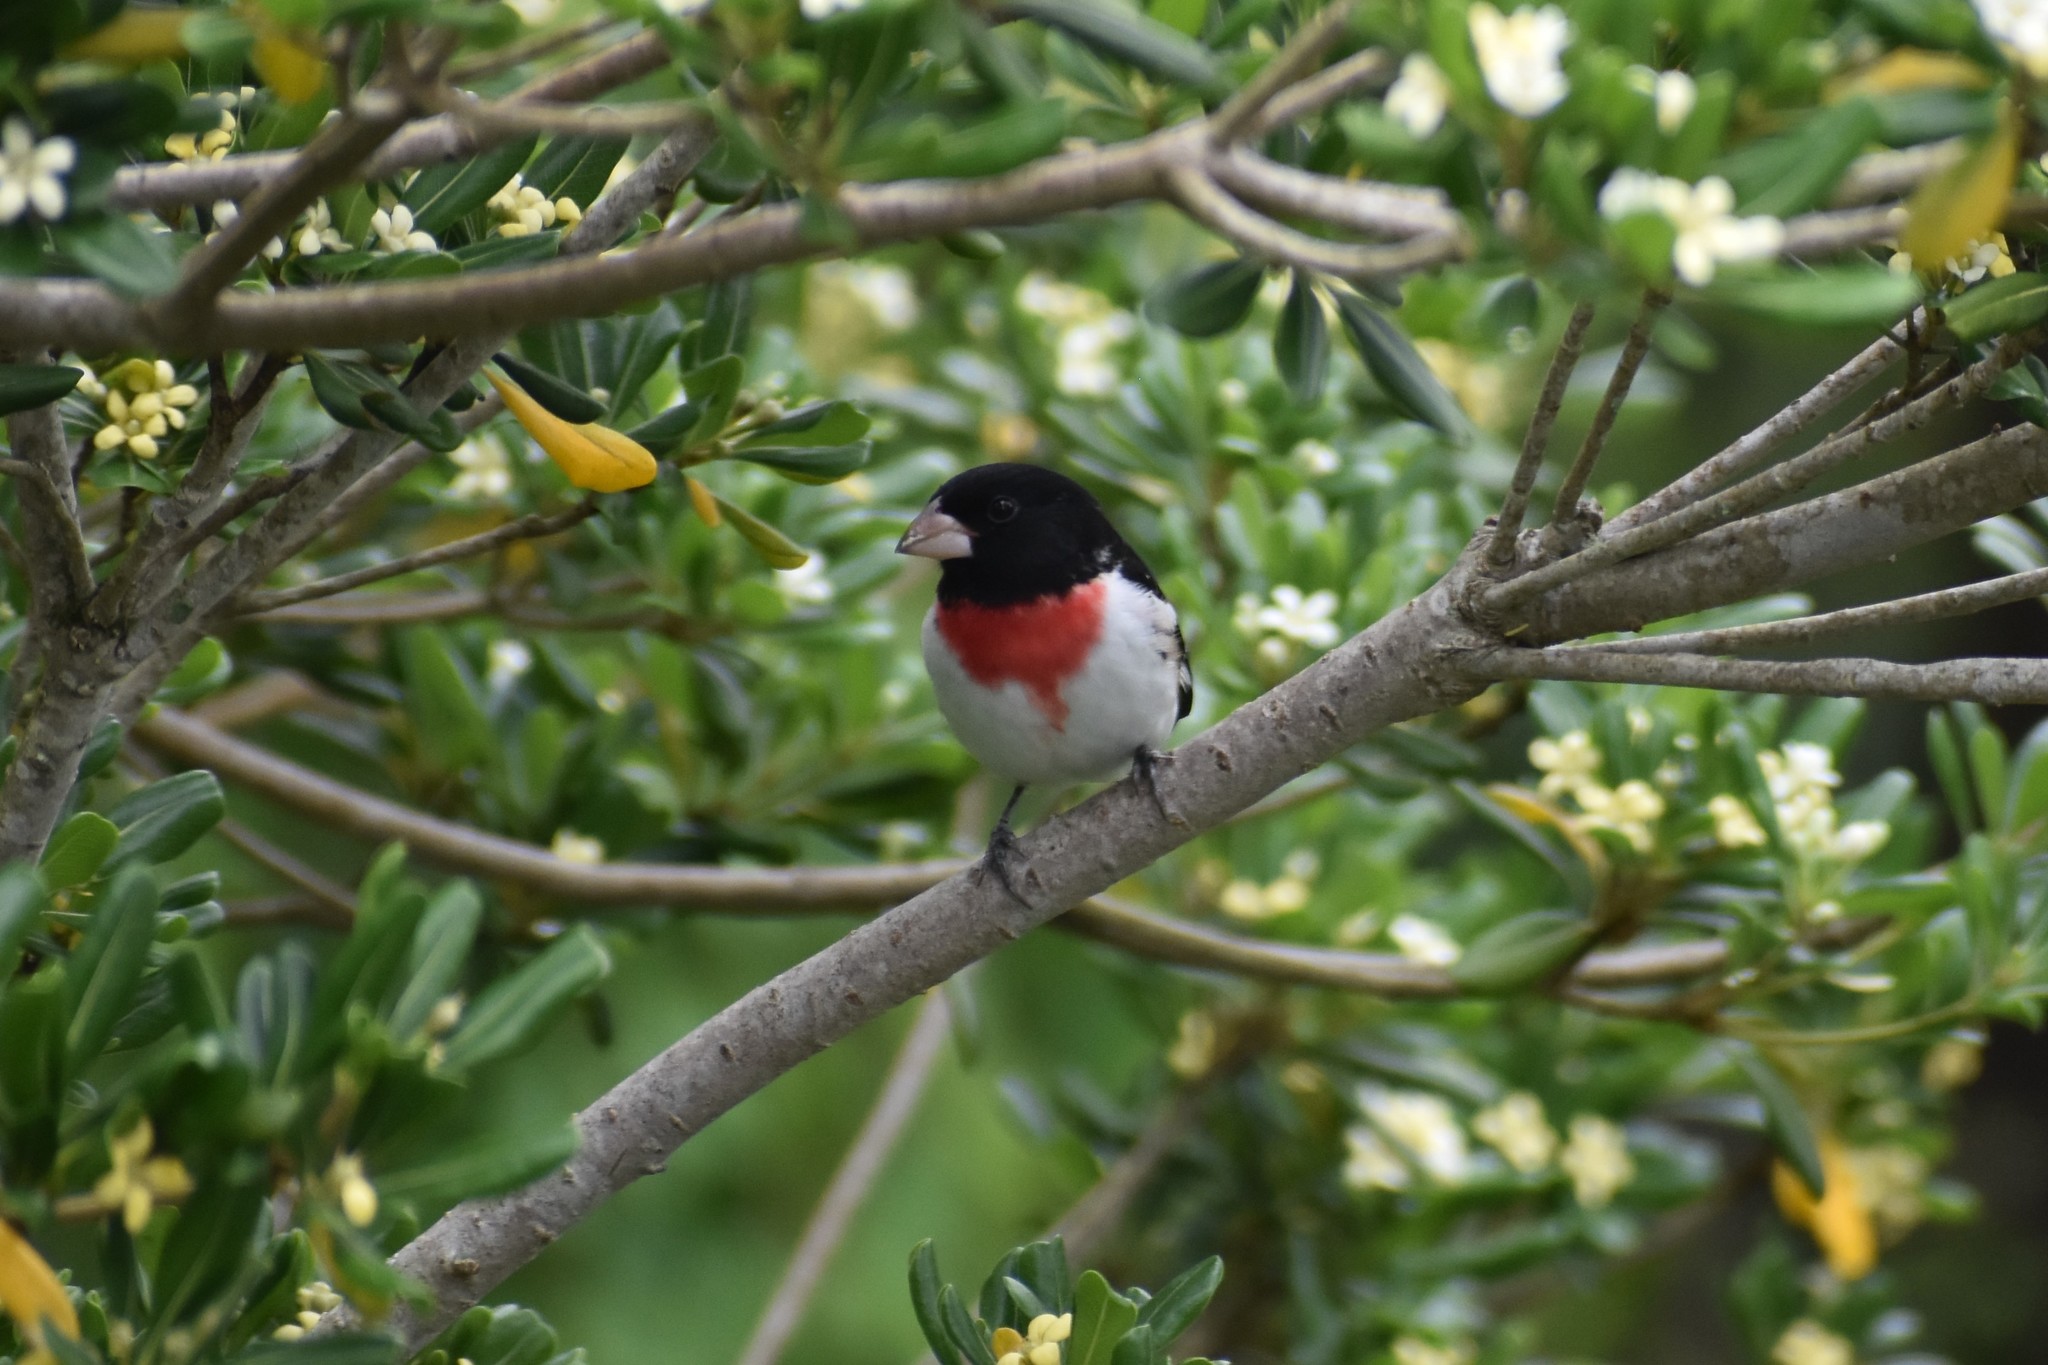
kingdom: Animalia
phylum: Chordata
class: Aves
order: Passeriformes
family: Cardinalidae
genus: Pheucticus
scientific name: Pheucticus ludovicianus
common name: Rose-breasted grosbeak
